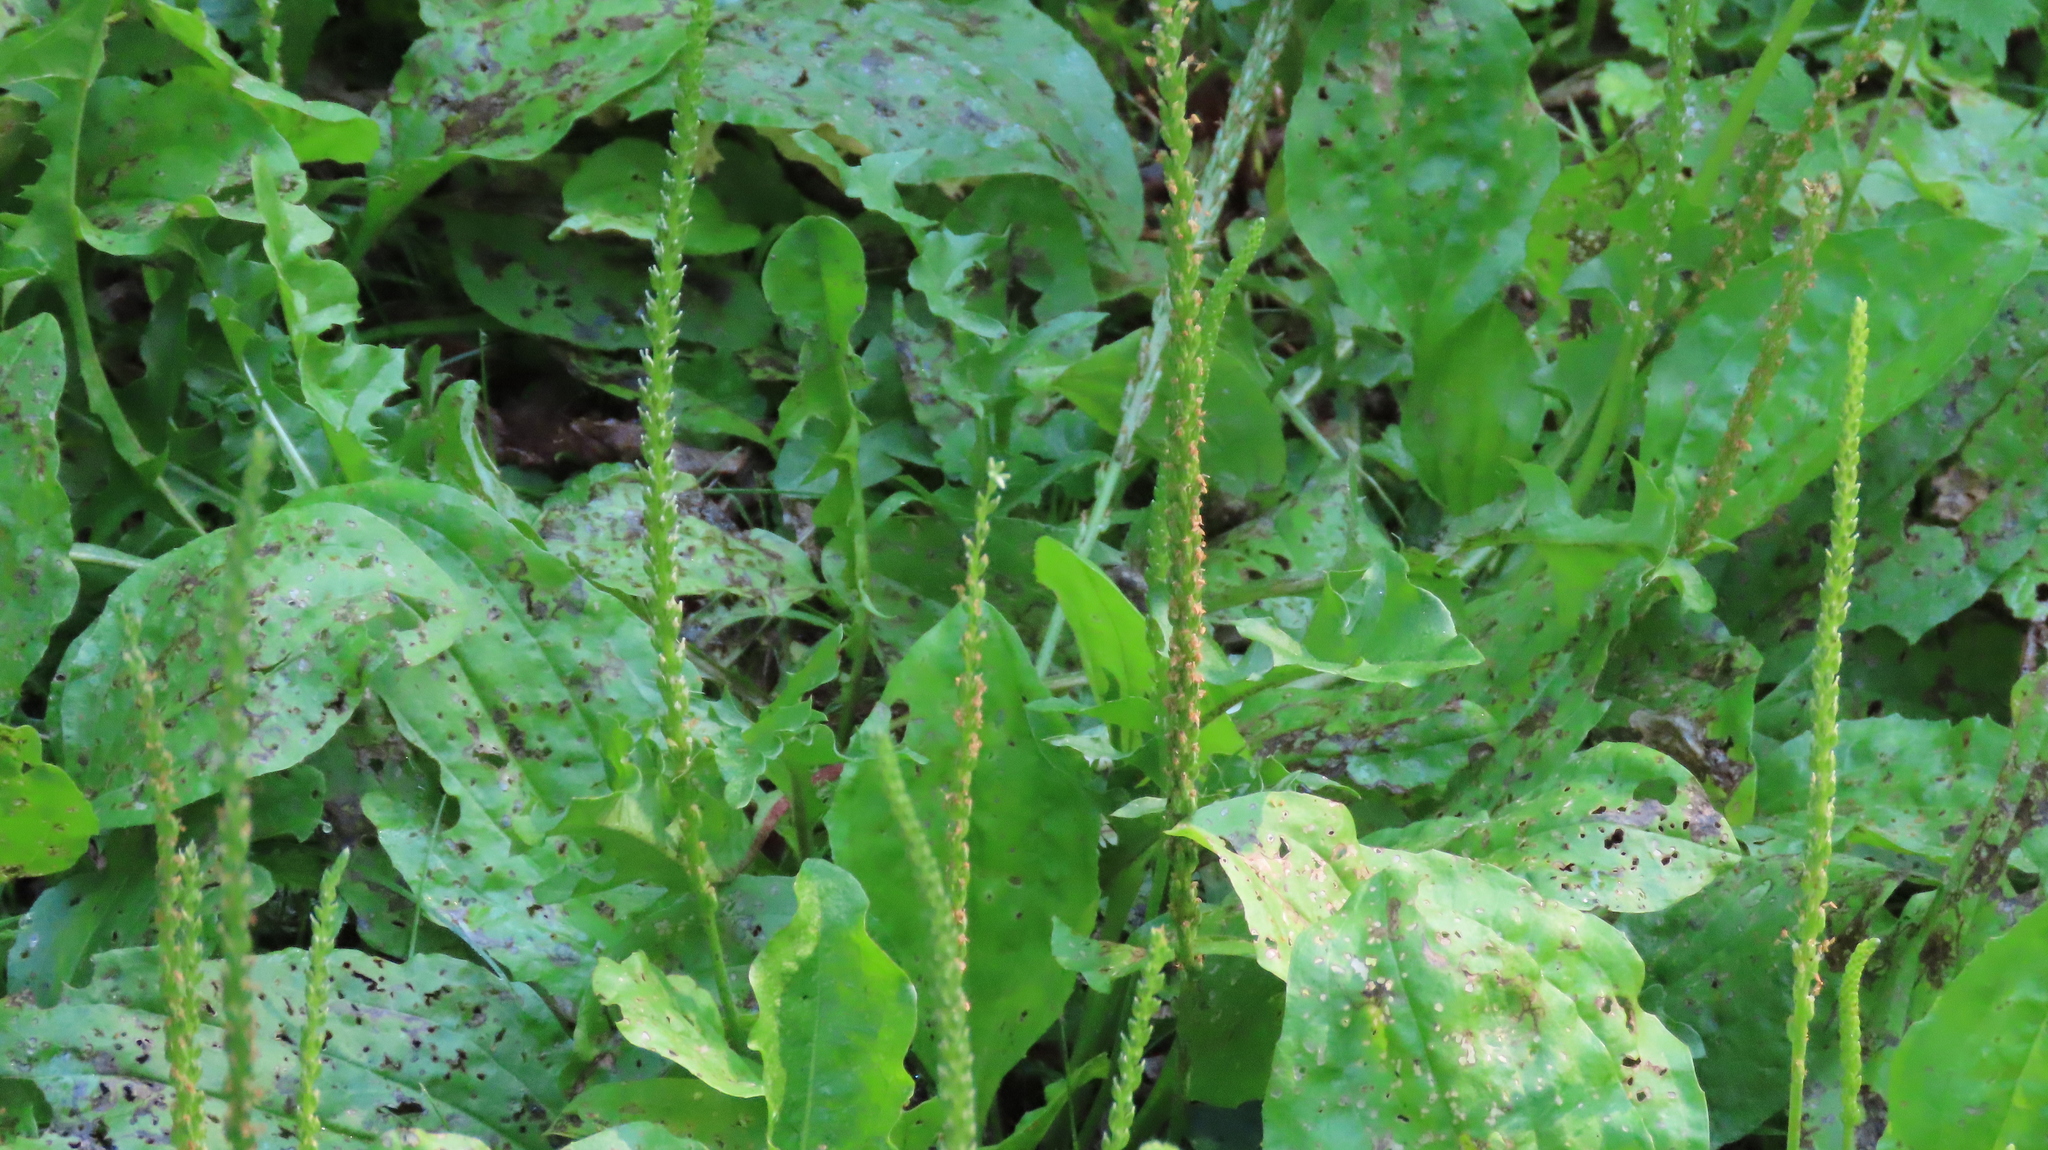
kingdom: Plantae
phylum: Tracheophyta
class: Magnoliopsida
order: Lamiales
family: Plantaginaceae
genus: Plantago
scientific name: Plantago rugelii
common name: American plantain
